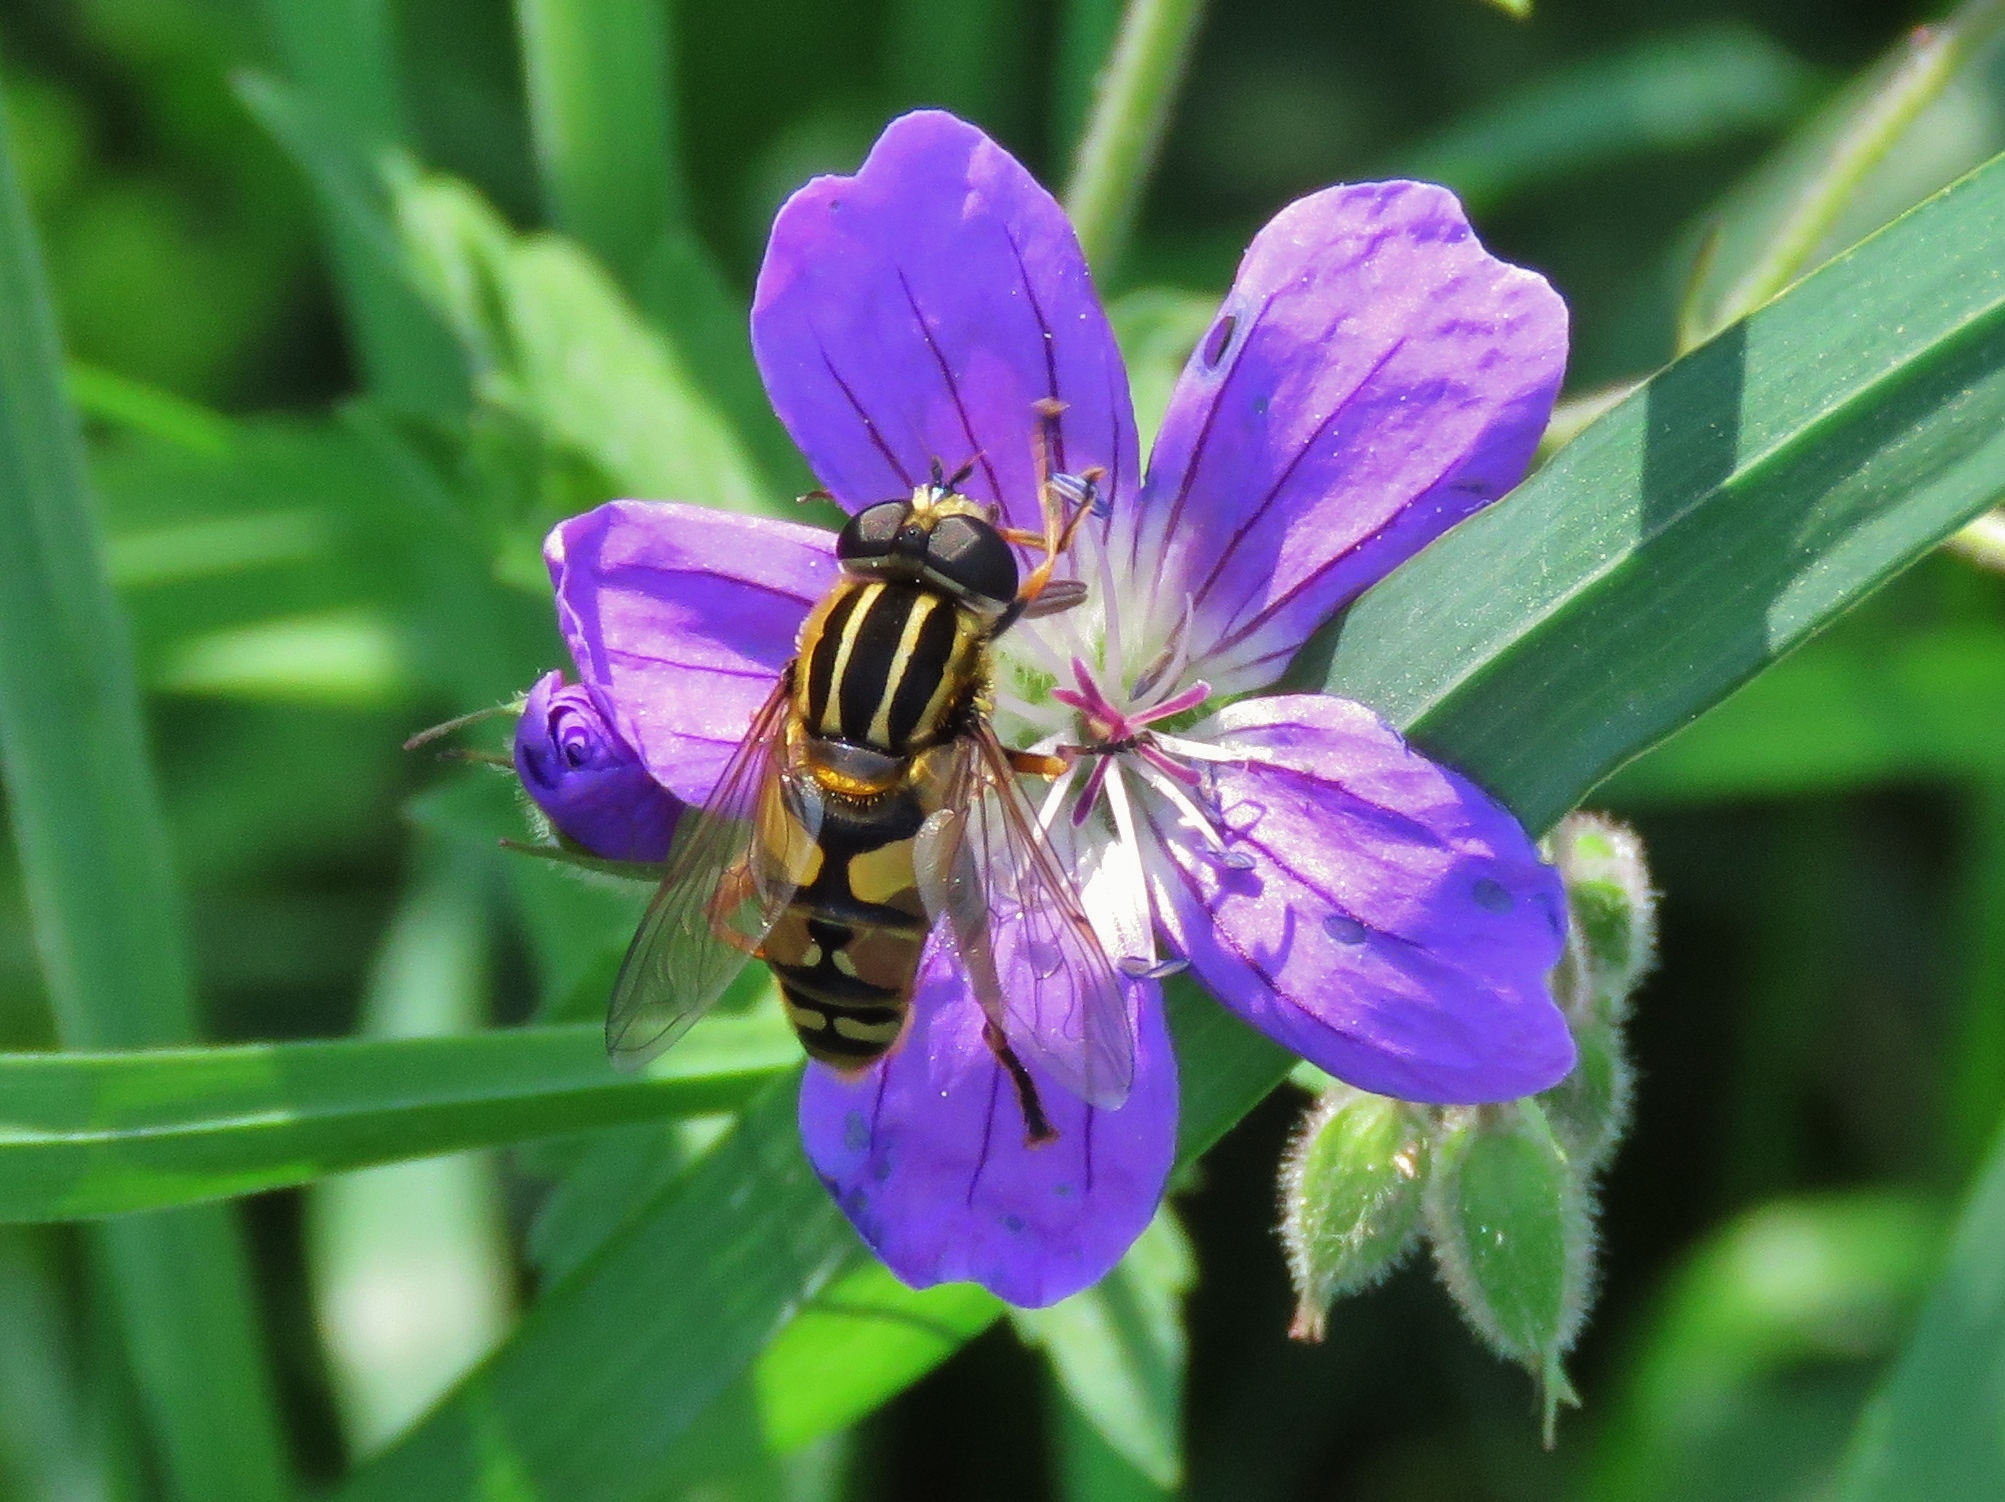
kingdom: Animalia
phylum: Arthropoda
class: Insecta
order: Diptera
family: Syrphidae
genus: Helophilus
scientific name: Helophilus pendulus
